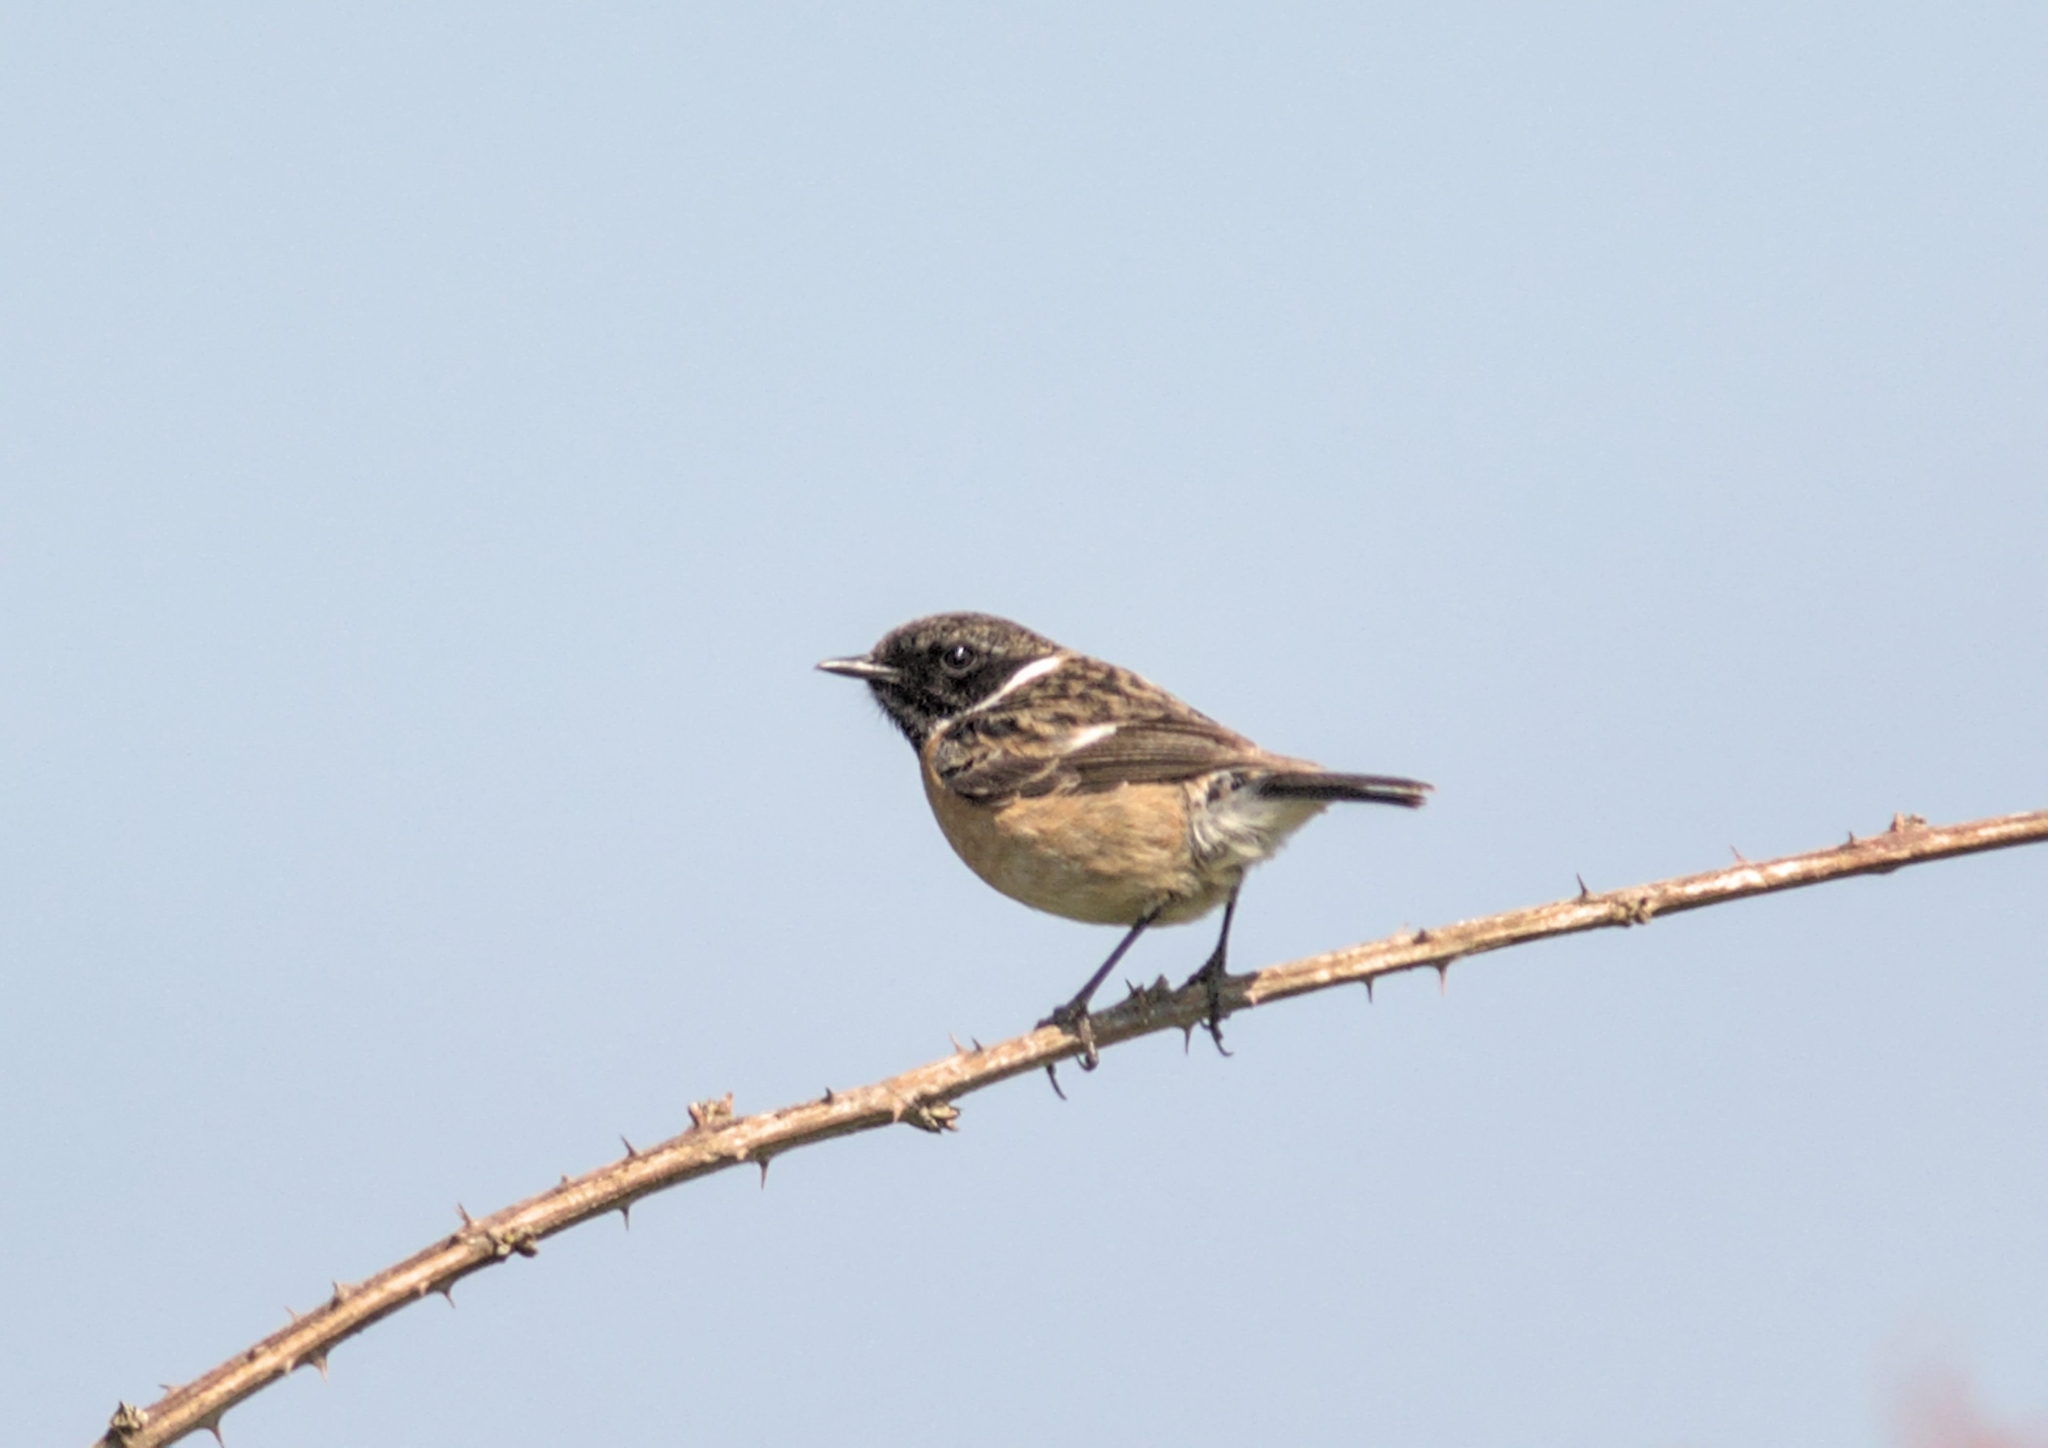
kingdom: Animalia
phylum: Chordata
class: Aves
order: Passeriformes
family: Muscicapidae
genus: Saxicola
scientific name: Saxicola rubicola
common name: European stonechat
